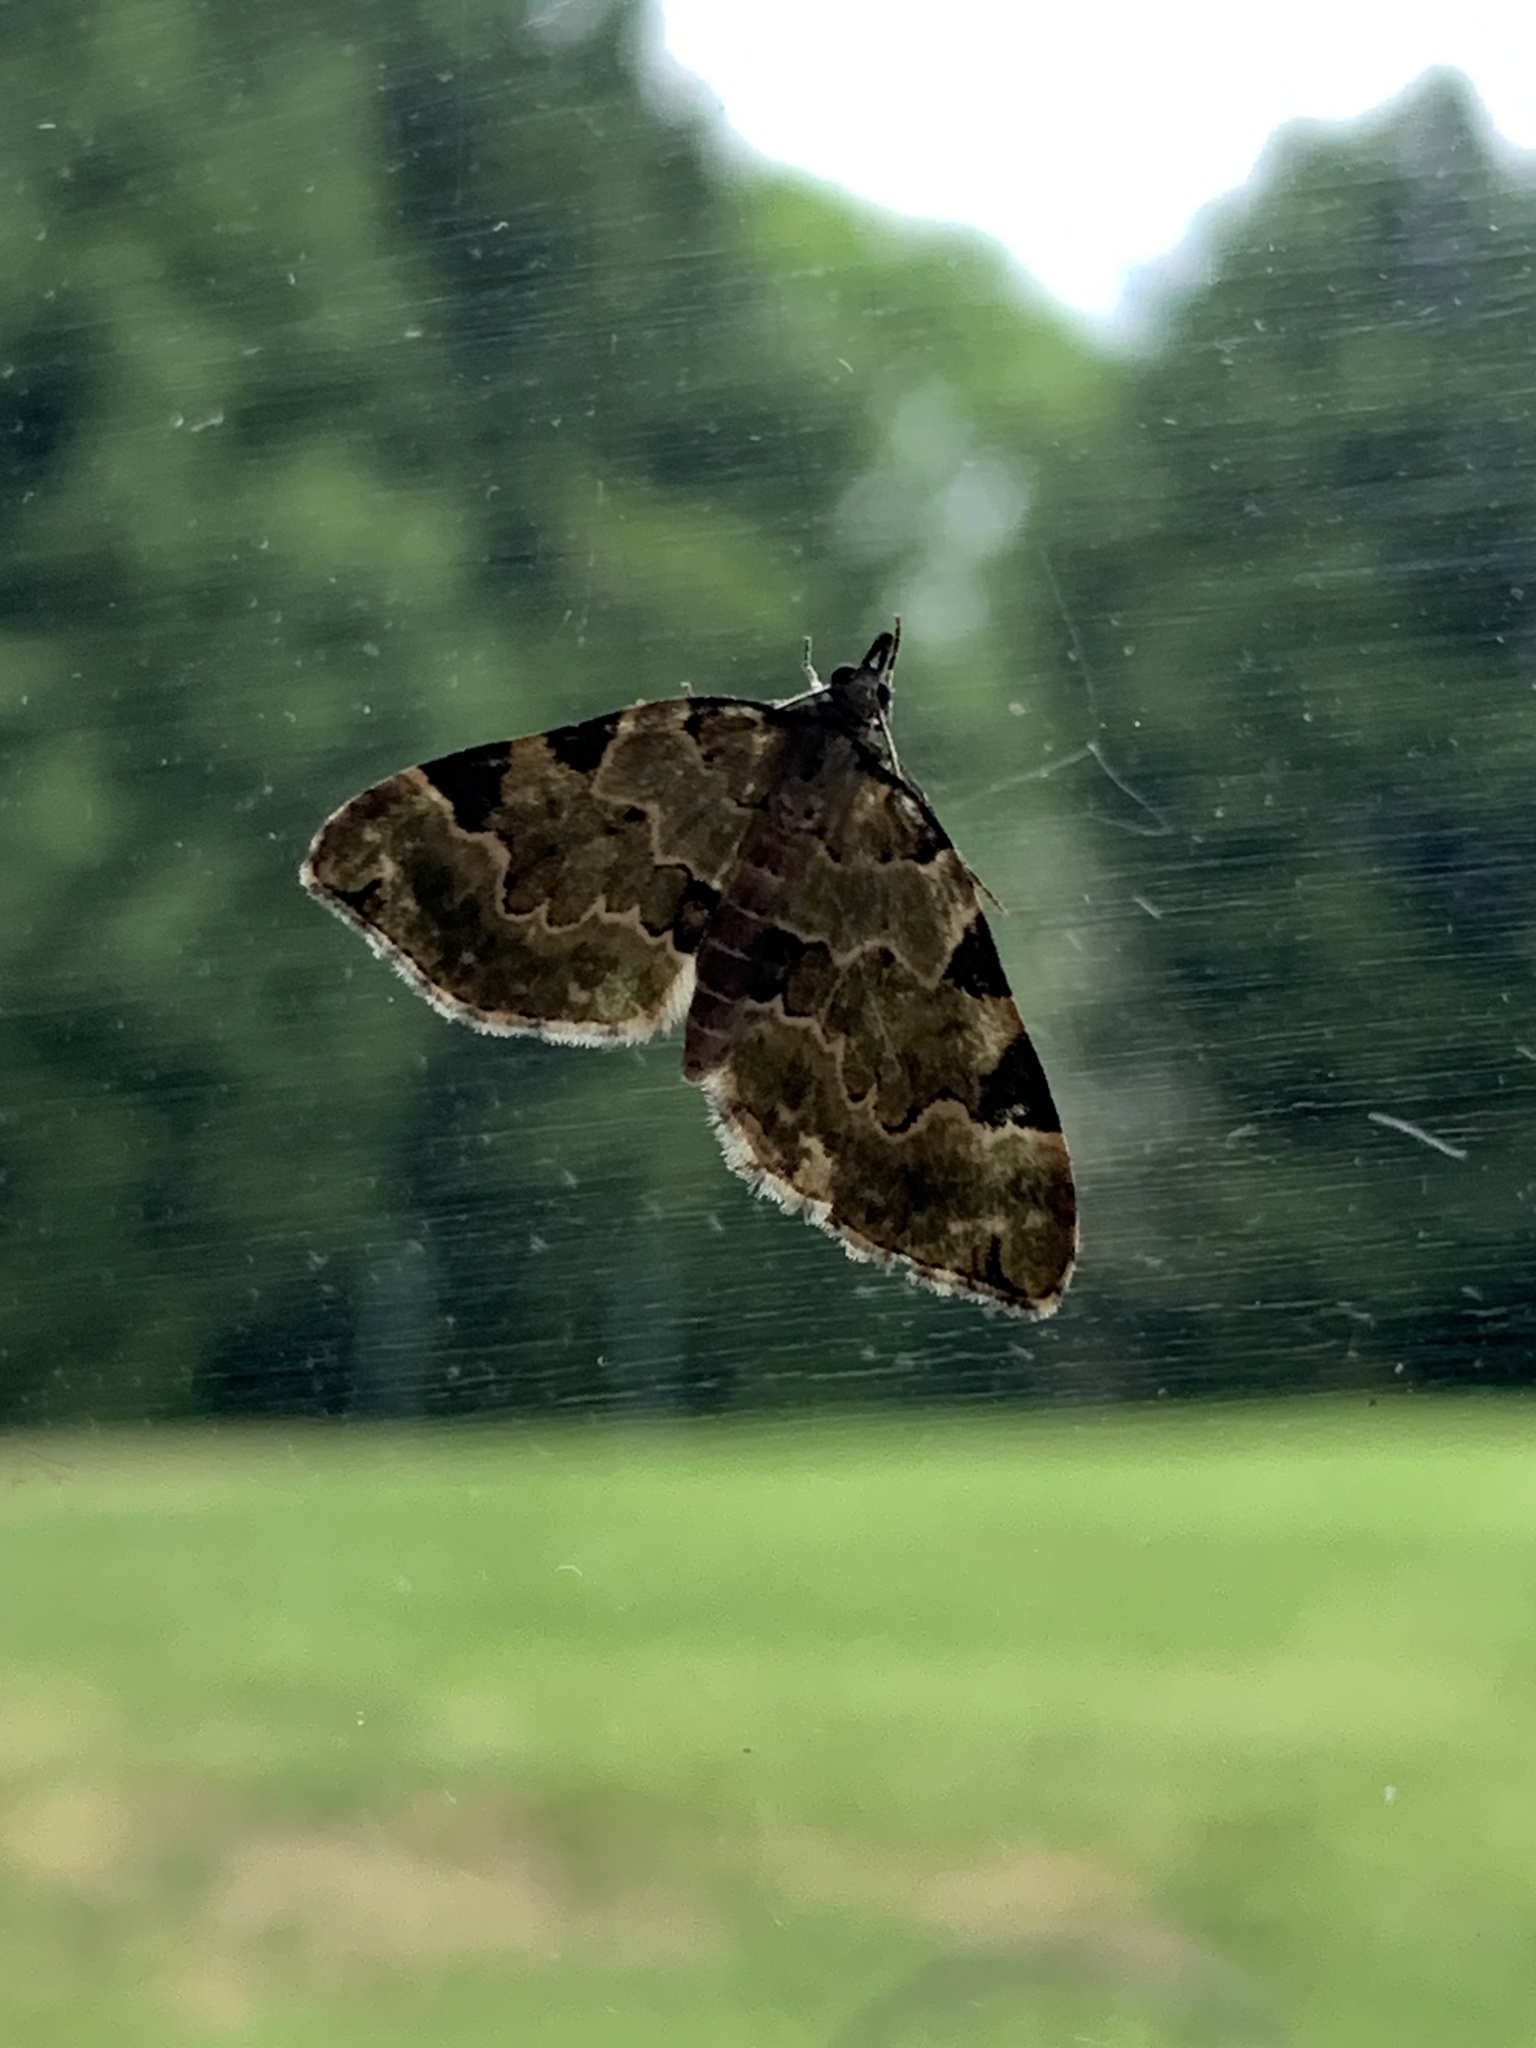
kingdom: Animalia
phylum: Arthropoda
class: Insecta
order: Lepidoptera
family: Geometridae
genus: Colostygia
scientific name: Colostygia pectinataria
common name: Green carpet
